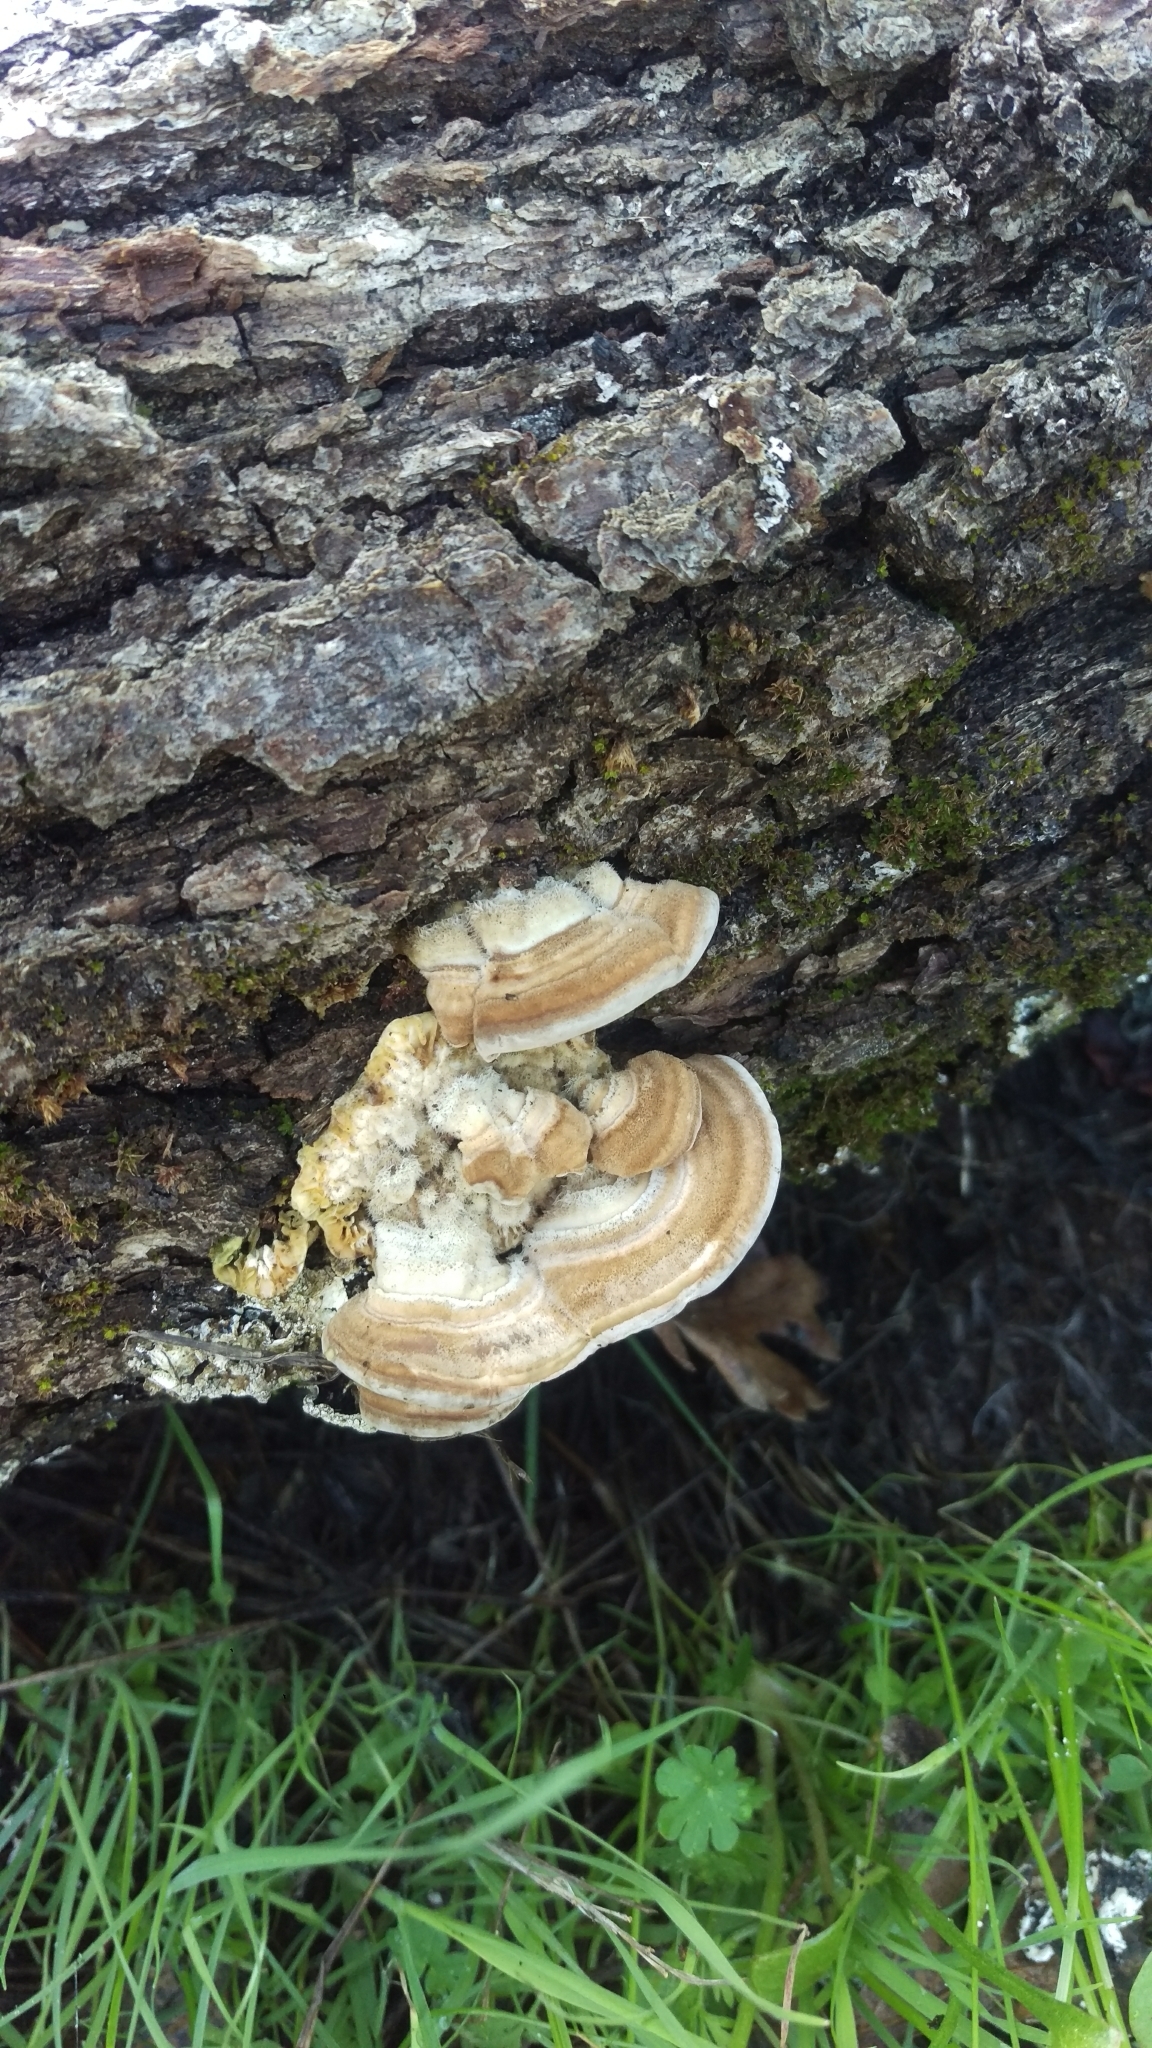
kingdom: Fungi
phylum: Basidiomycota
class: Agaricomycetes
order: Polyporales
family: Polyporaceae
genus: Lenzites
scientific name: Lenzites betulinus
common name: Birch mazegill
